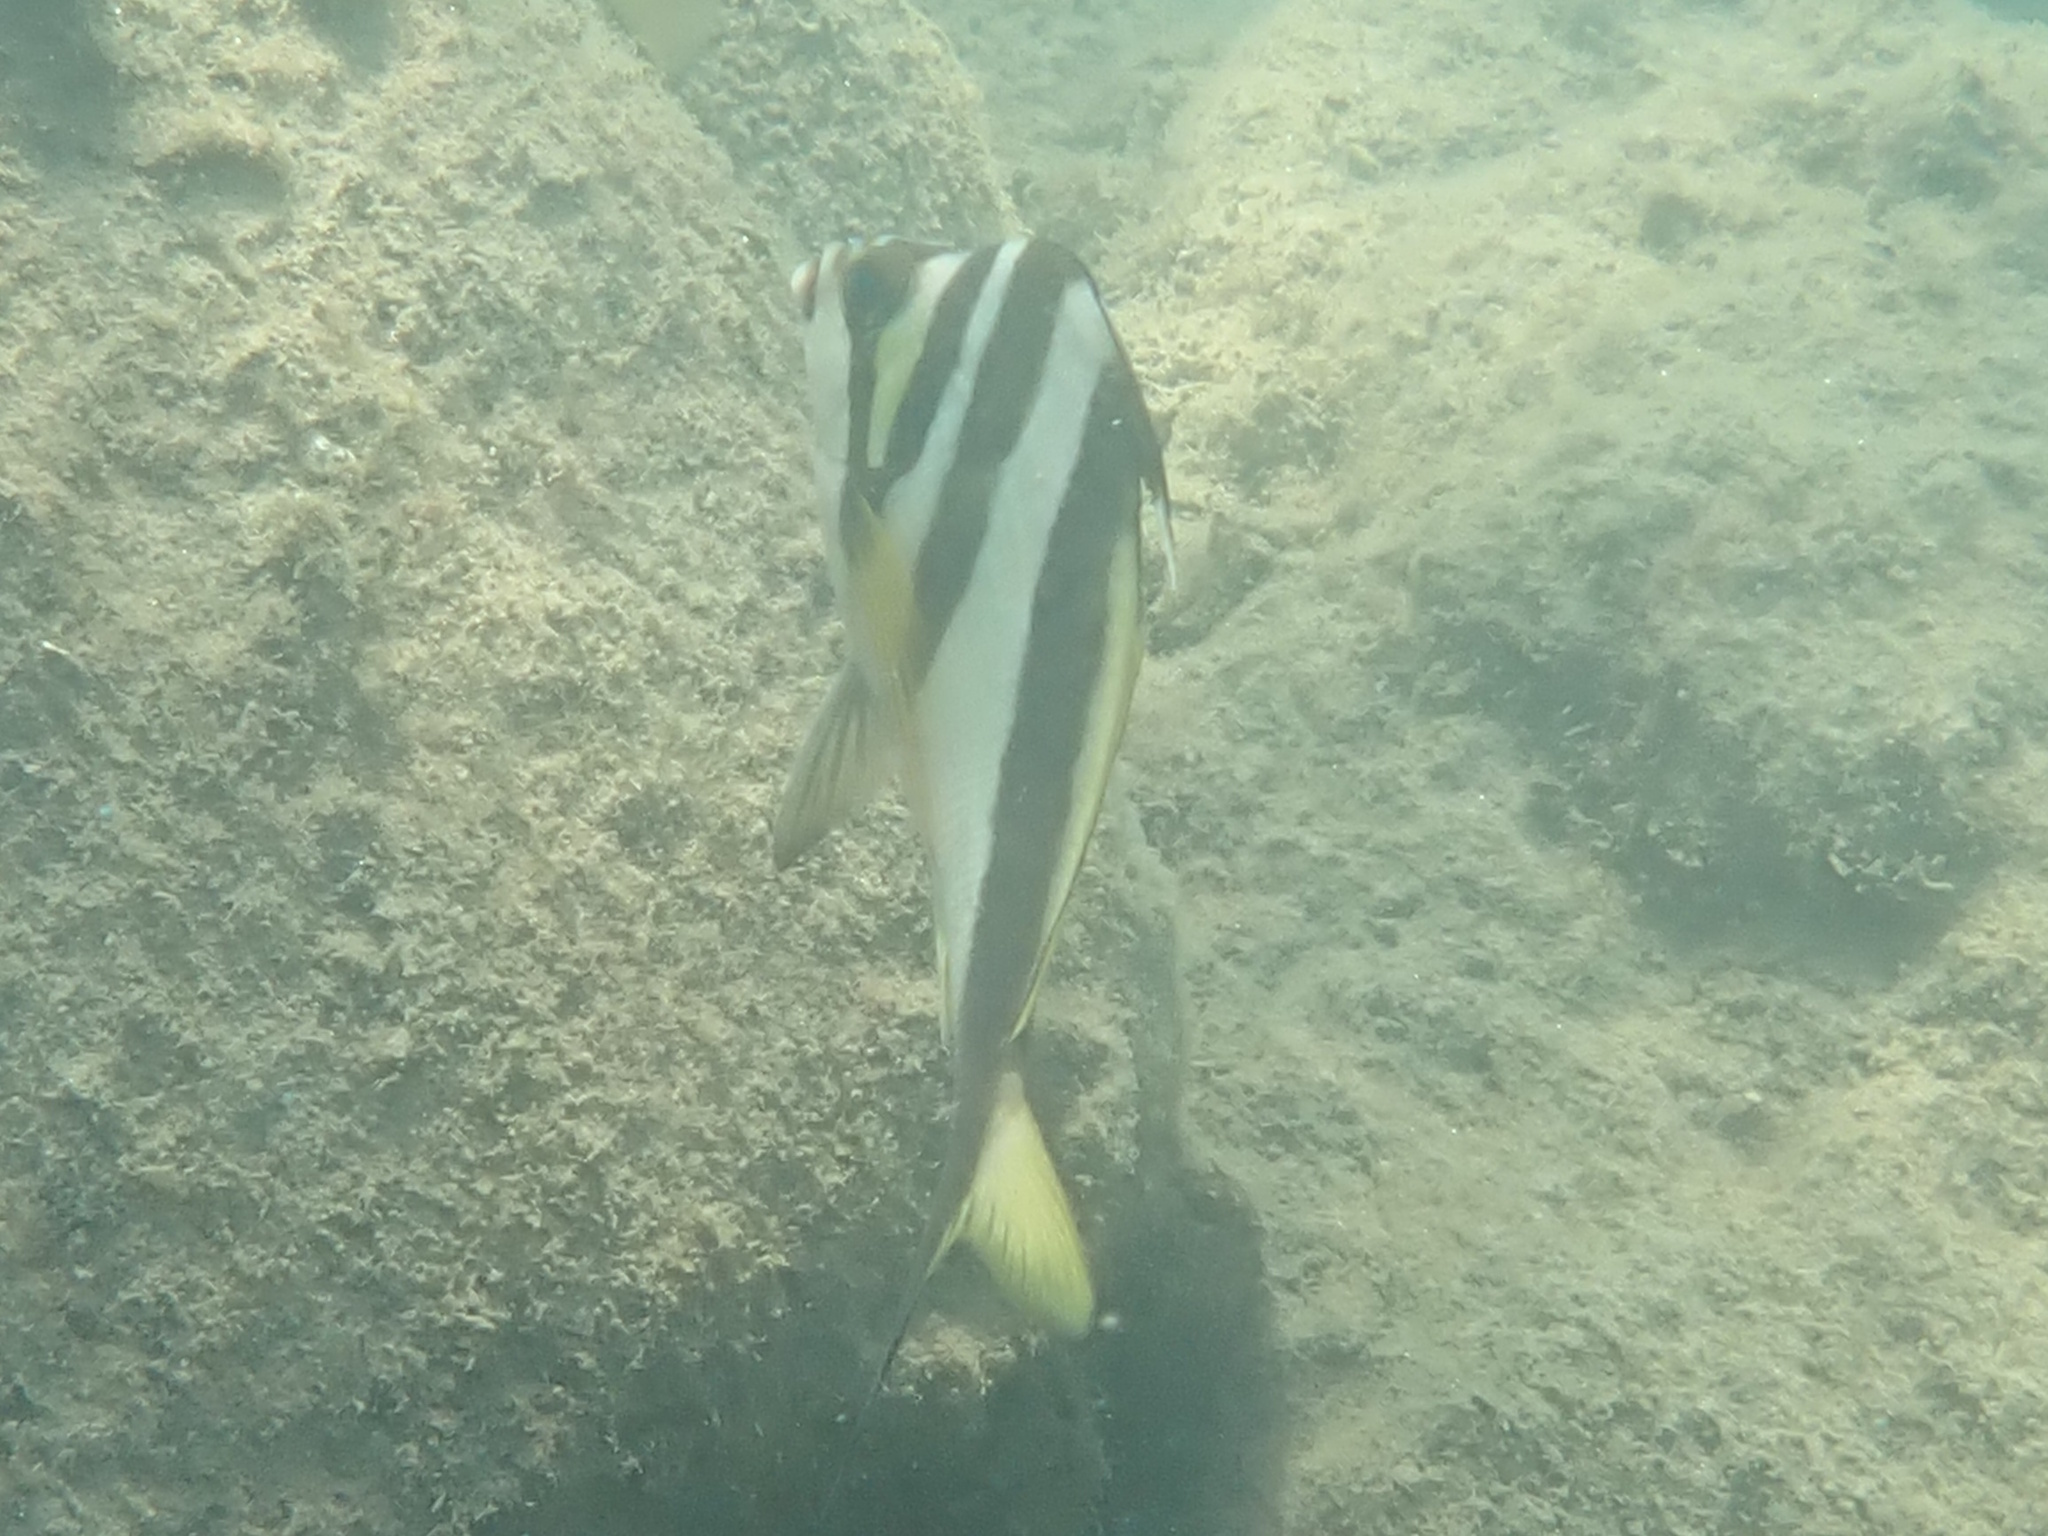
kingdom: Animalia
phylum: Chordata
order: Perciformes
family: Cheilodactylidae
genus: Cheilodactylus
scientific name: Cheilodactylus vestitus
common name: Crested morwong
